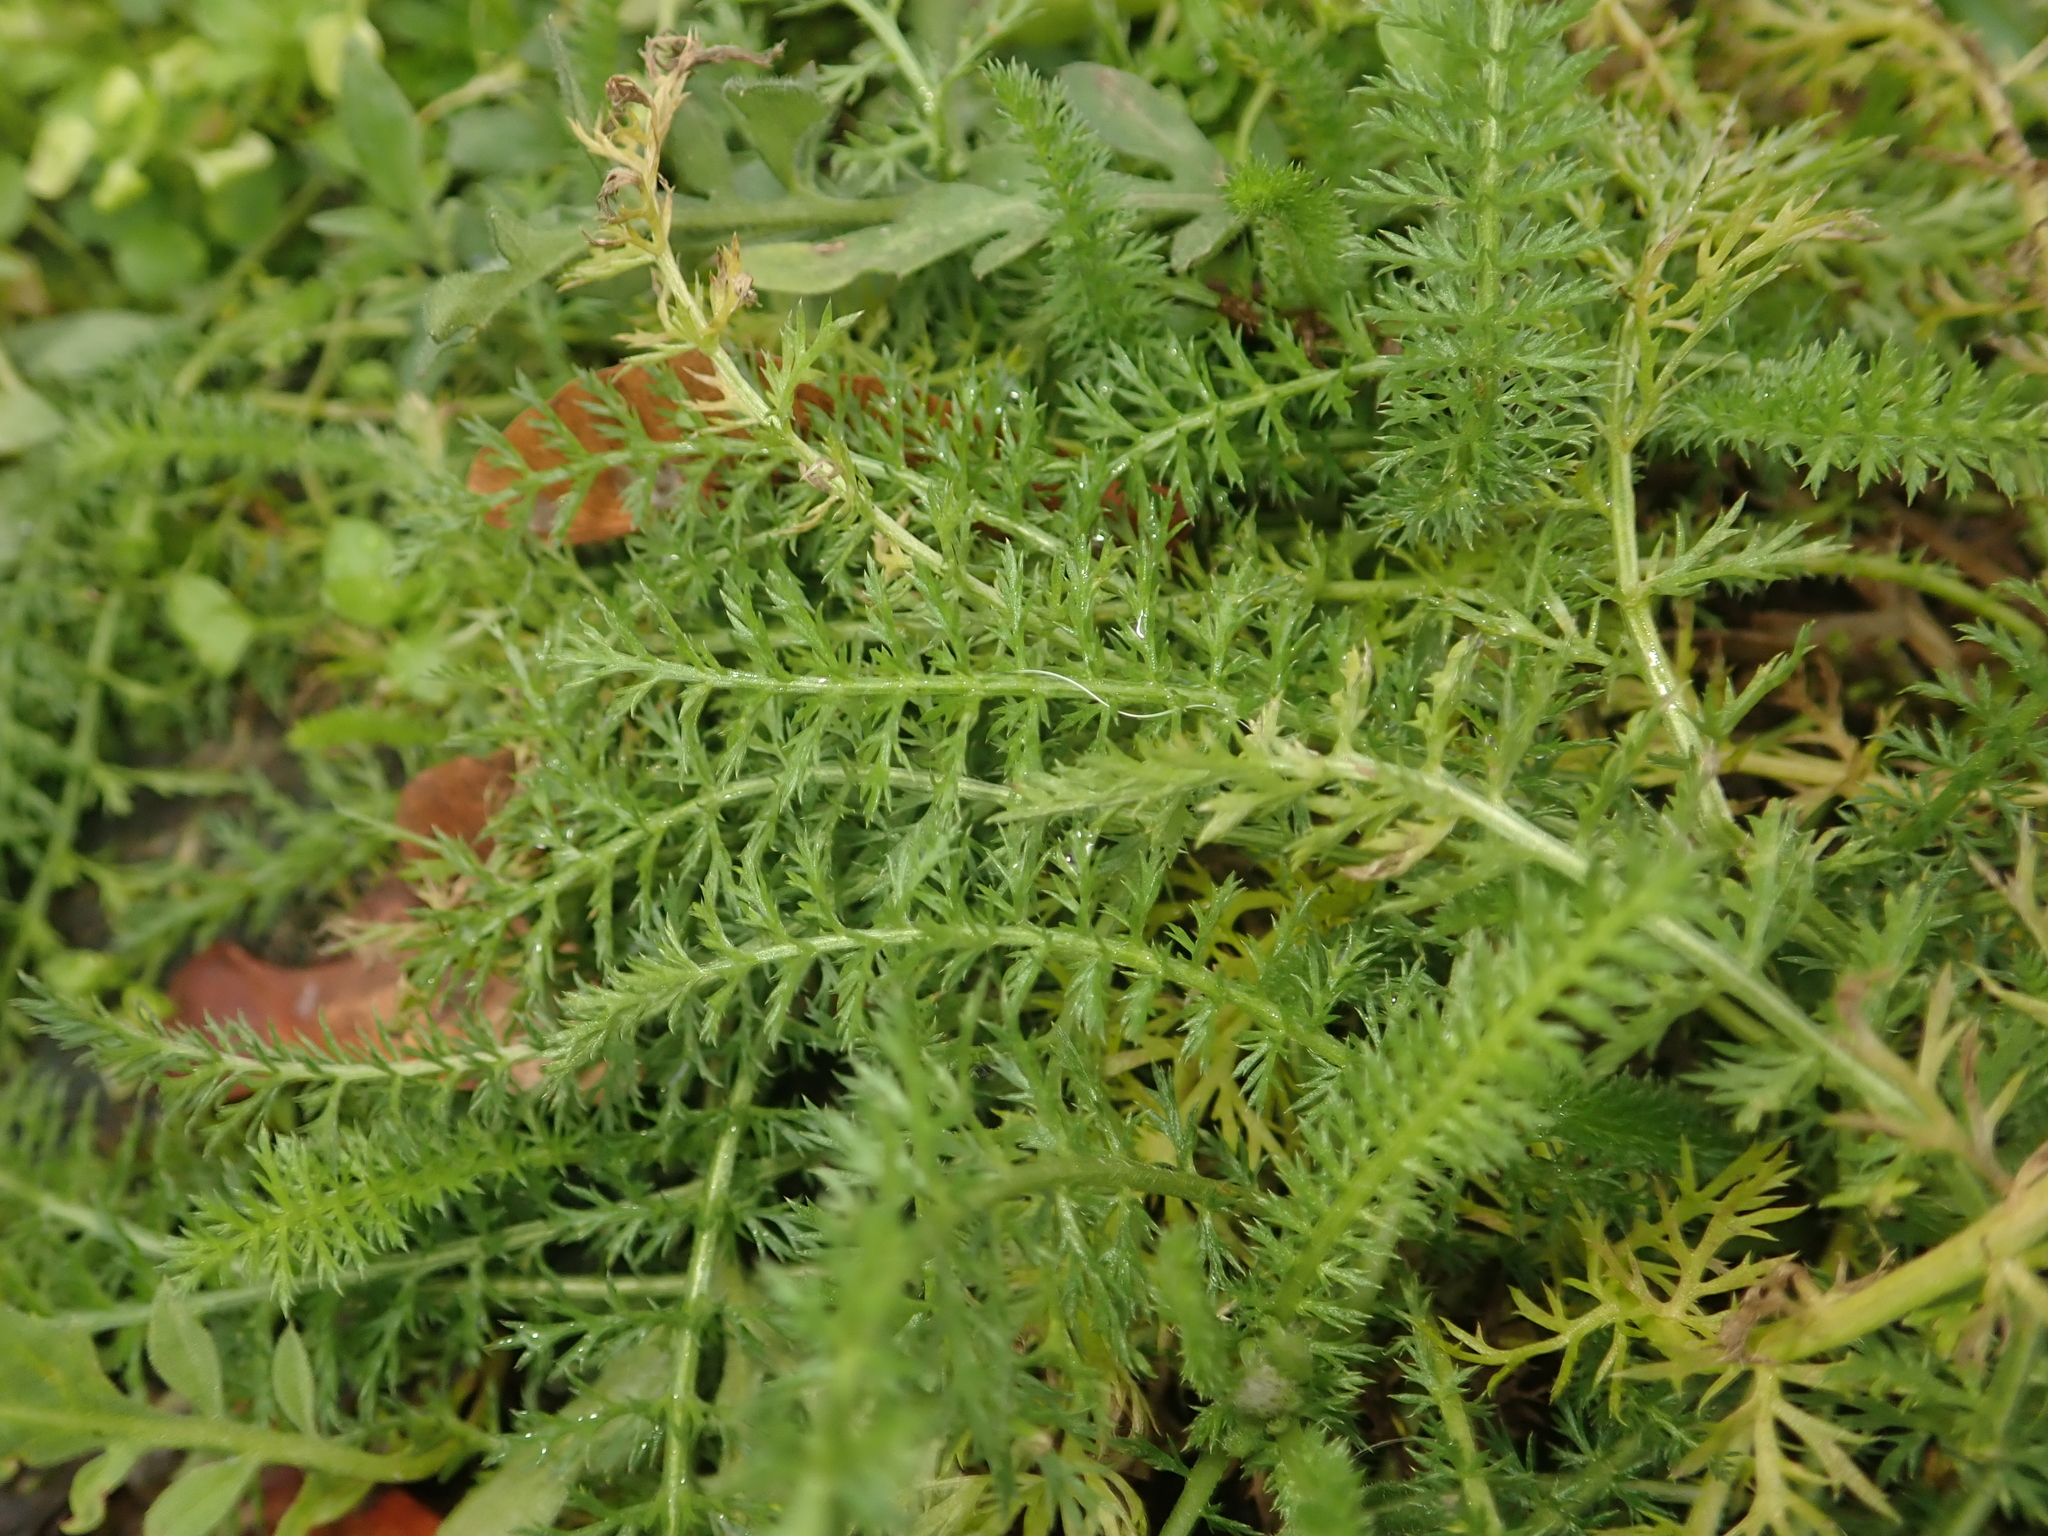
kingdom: Plantae
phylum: Tracheophyta
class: Magnoliopsida
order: Asterales
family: Asteraceae
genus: Achillea
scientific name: Achillea millefolium
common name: Yarrow
